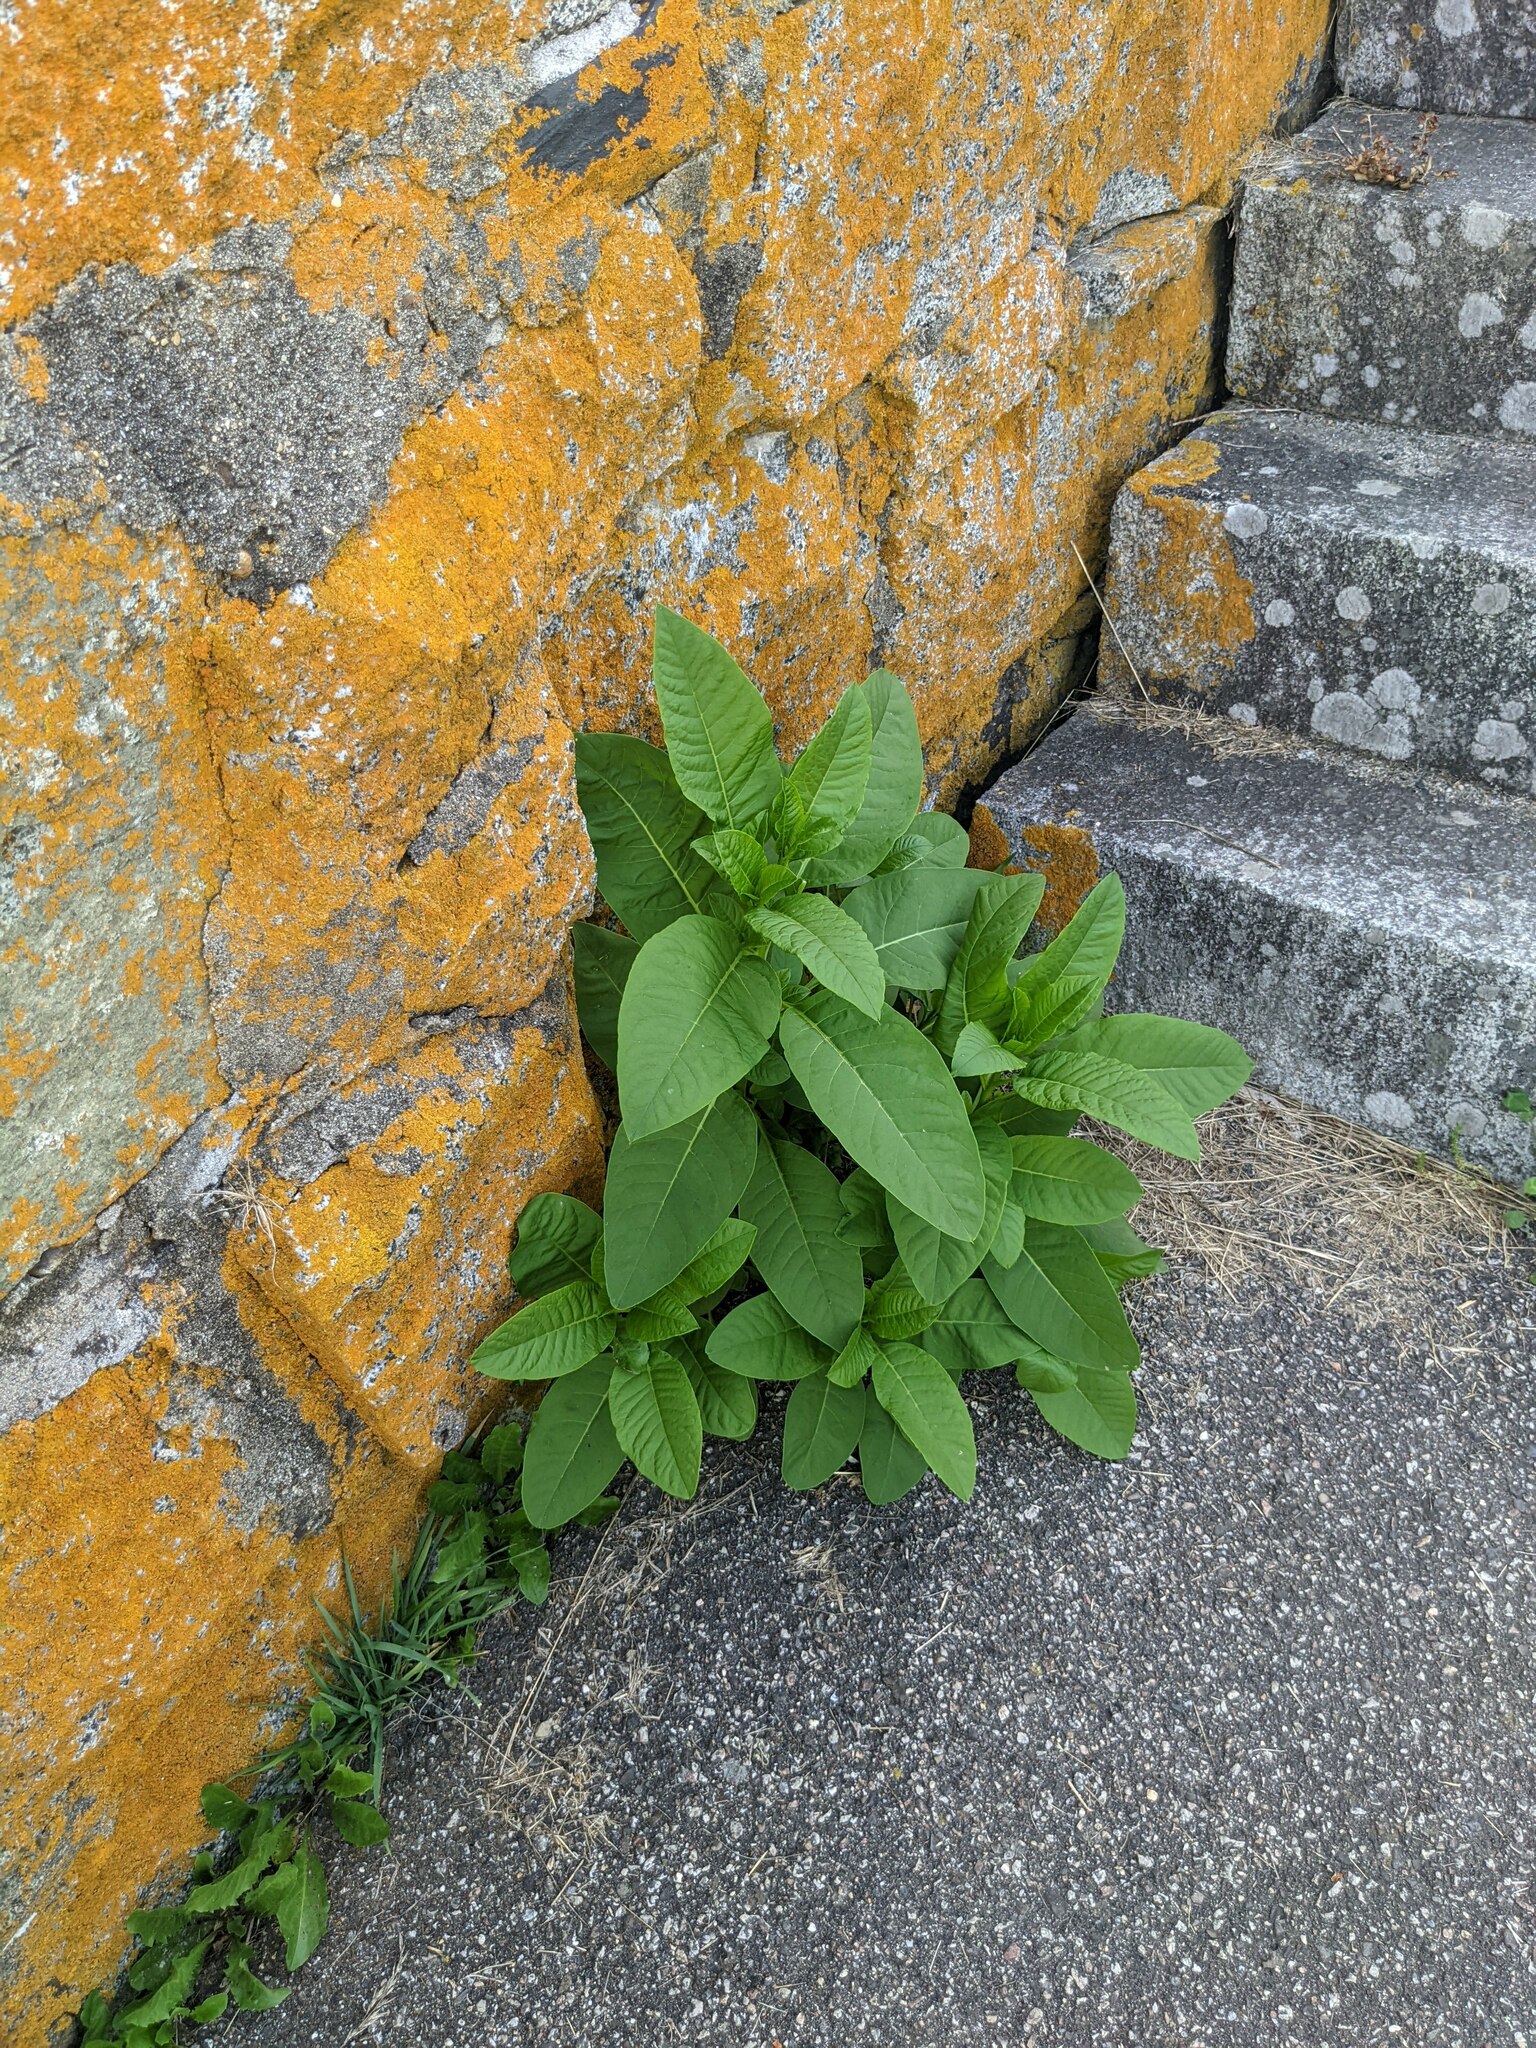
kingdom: Plantae
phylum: Tracheophyta
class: Magnoliopsida
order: Caryophyllales
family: Phytolaccaceae
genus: Phytolacca
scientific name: Phytolacca americana
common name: American pokeweed
